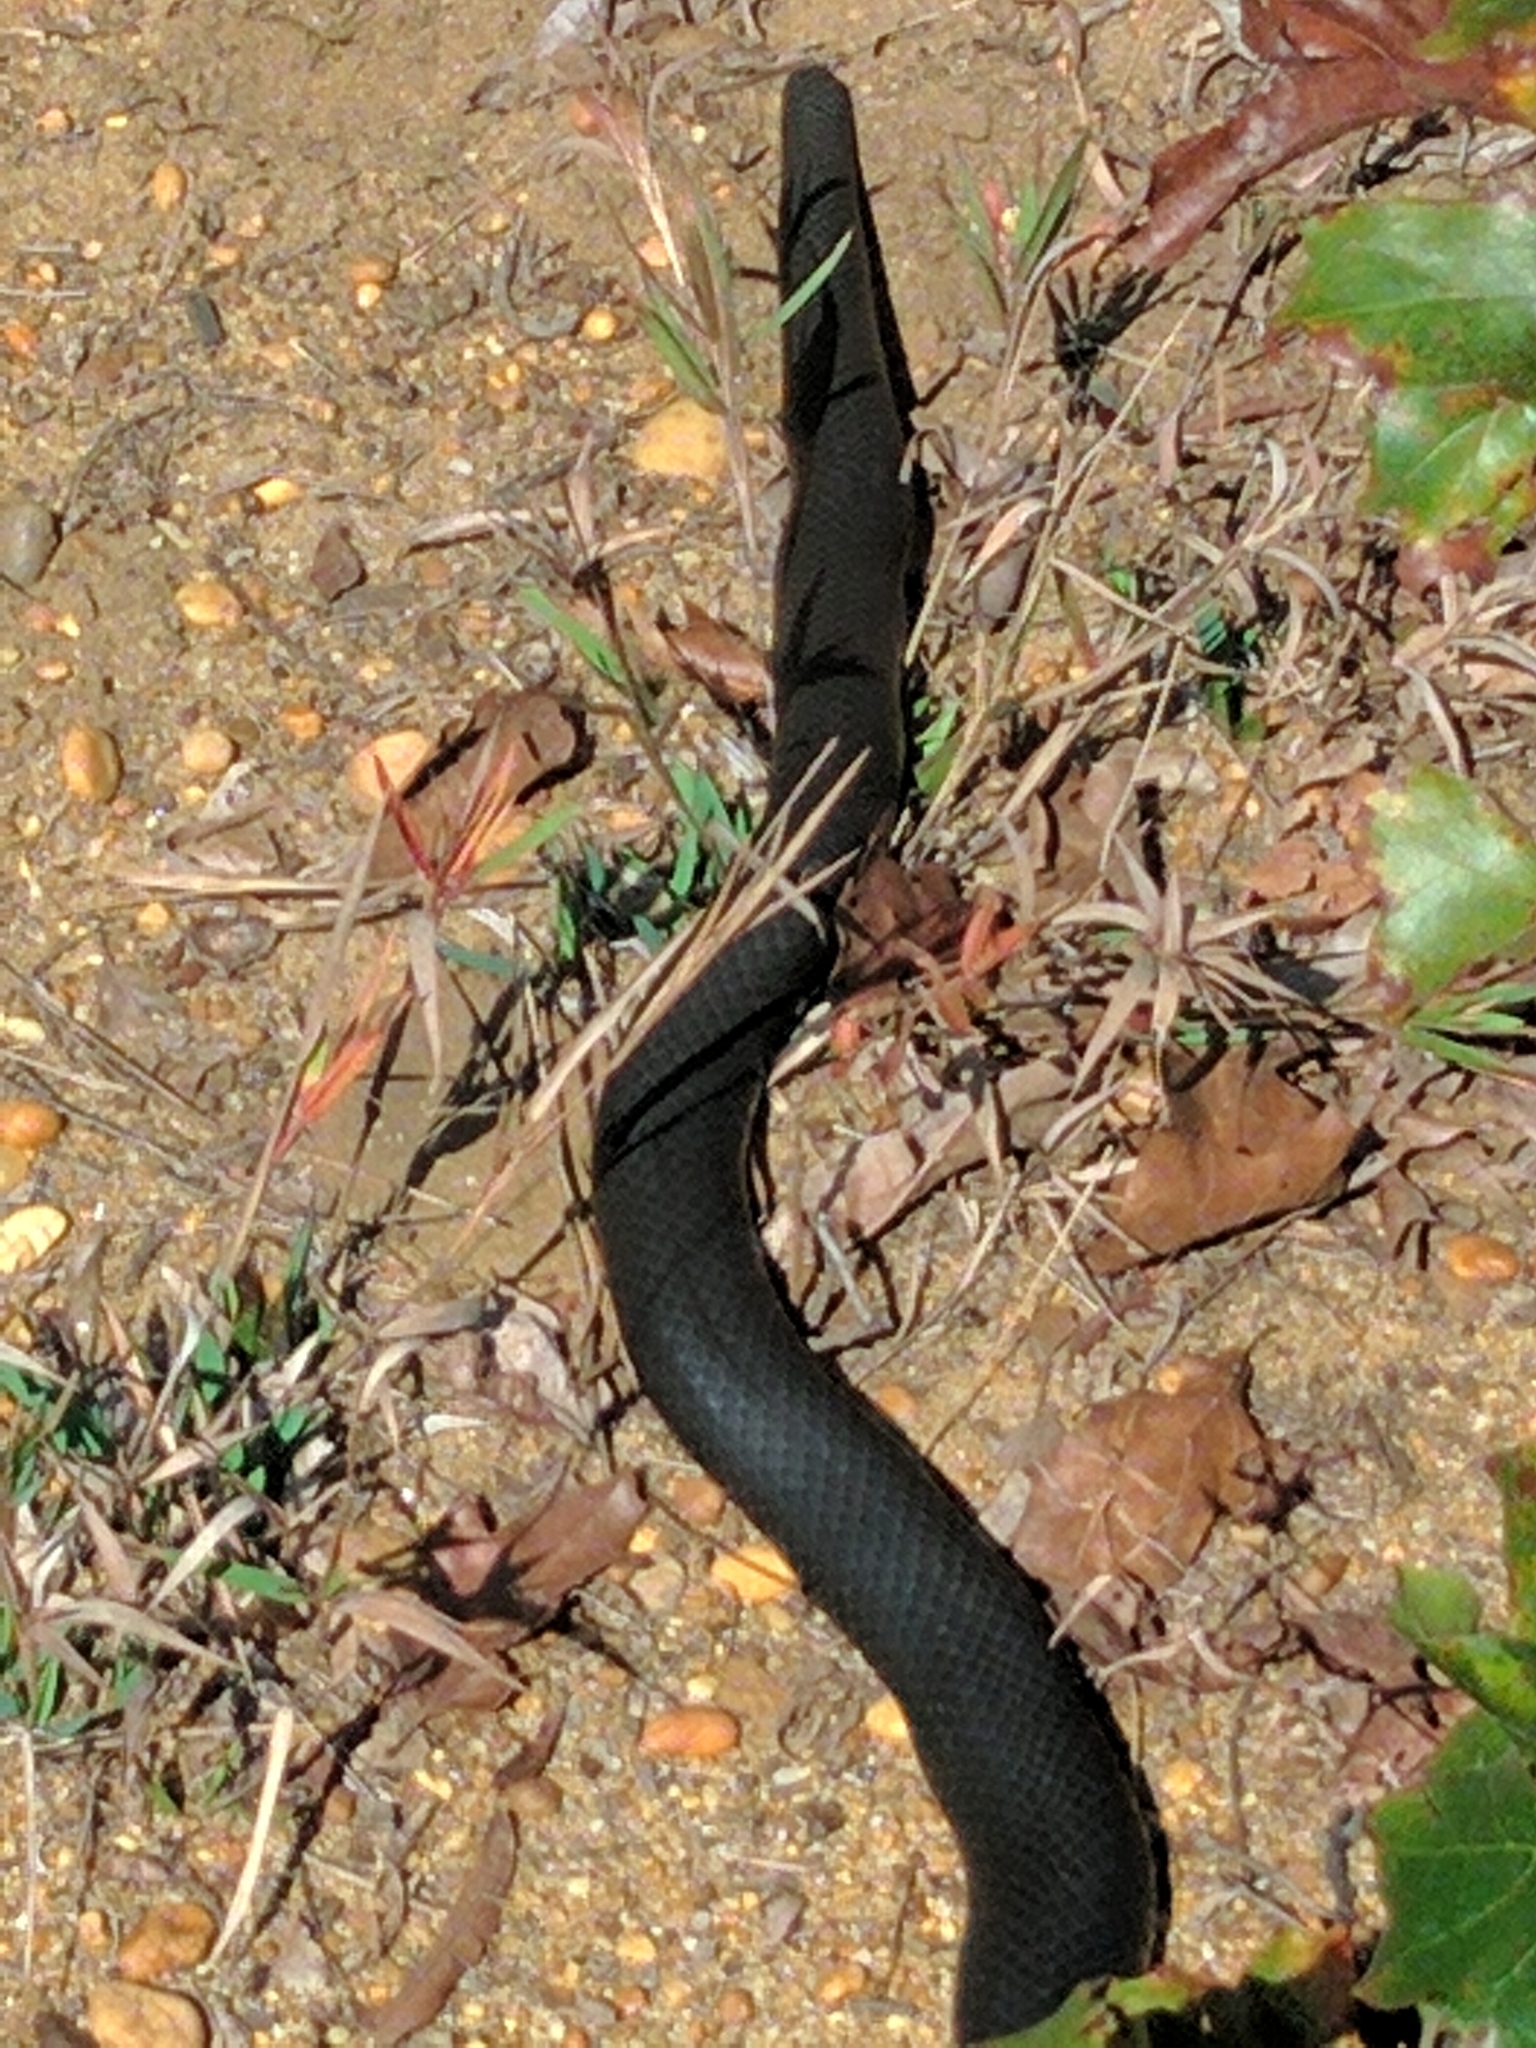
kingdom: Animalia
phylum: Chordata
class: Squamata
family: Colubridae
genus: Coluber
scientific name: Coluber constrictor
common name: Eastern racer
